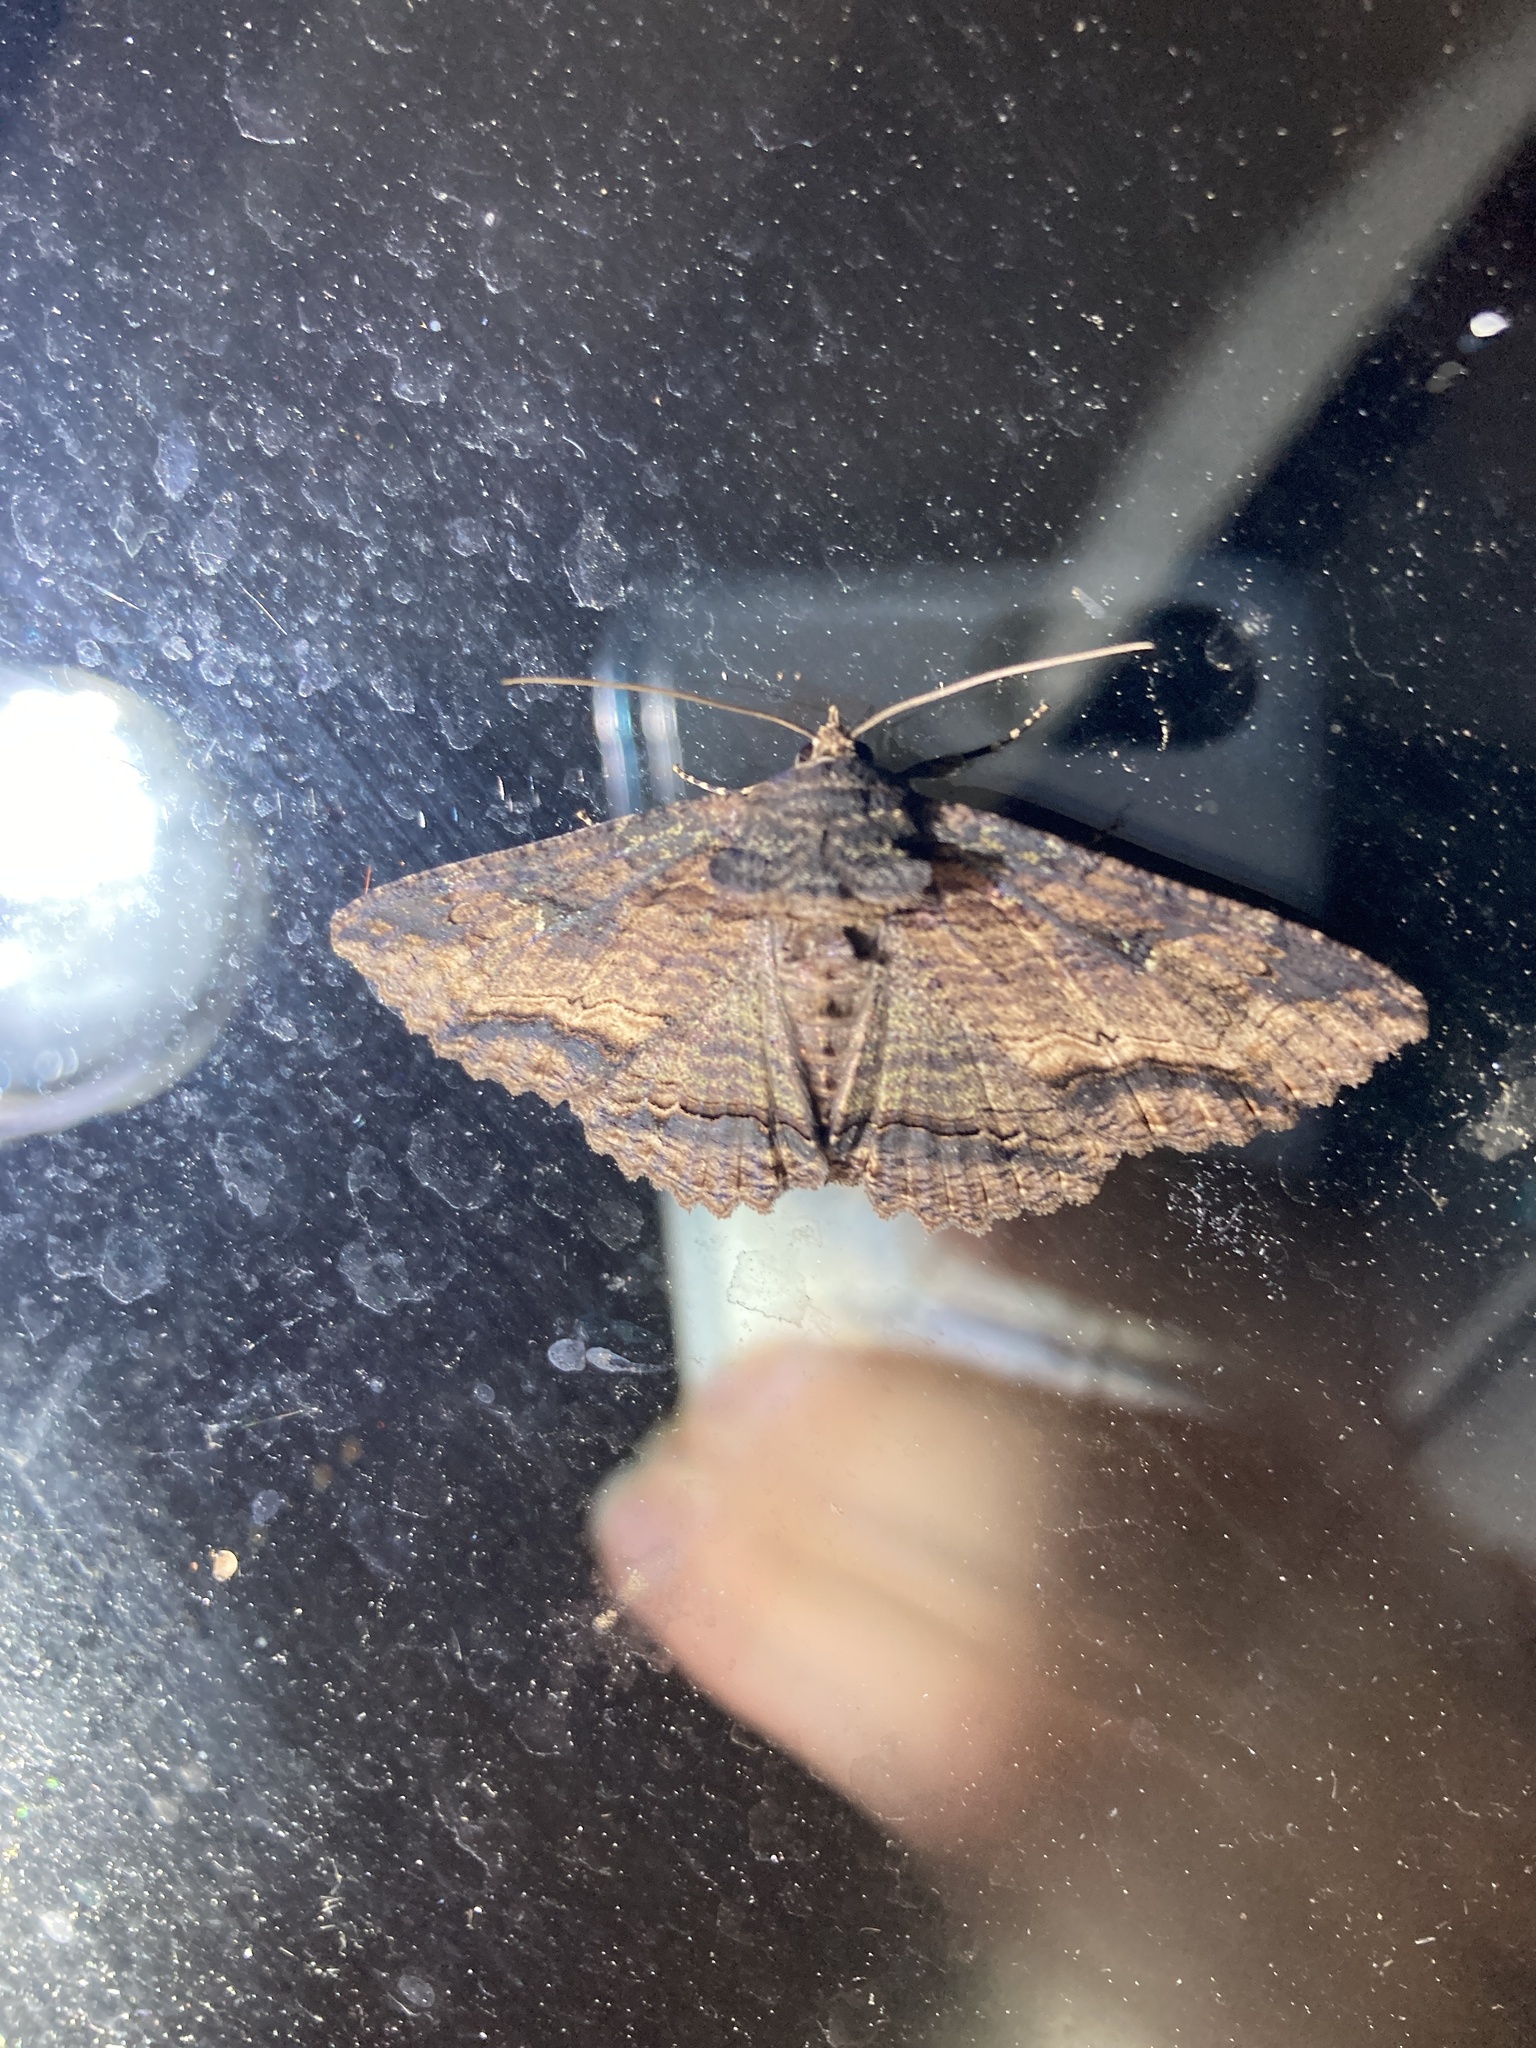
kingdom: Animalia
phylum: Arthropoda
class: Insecta
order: Lepidoptera
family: Erebidae
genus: Zale
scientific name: Zale lunata
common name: Lunate zale moth
